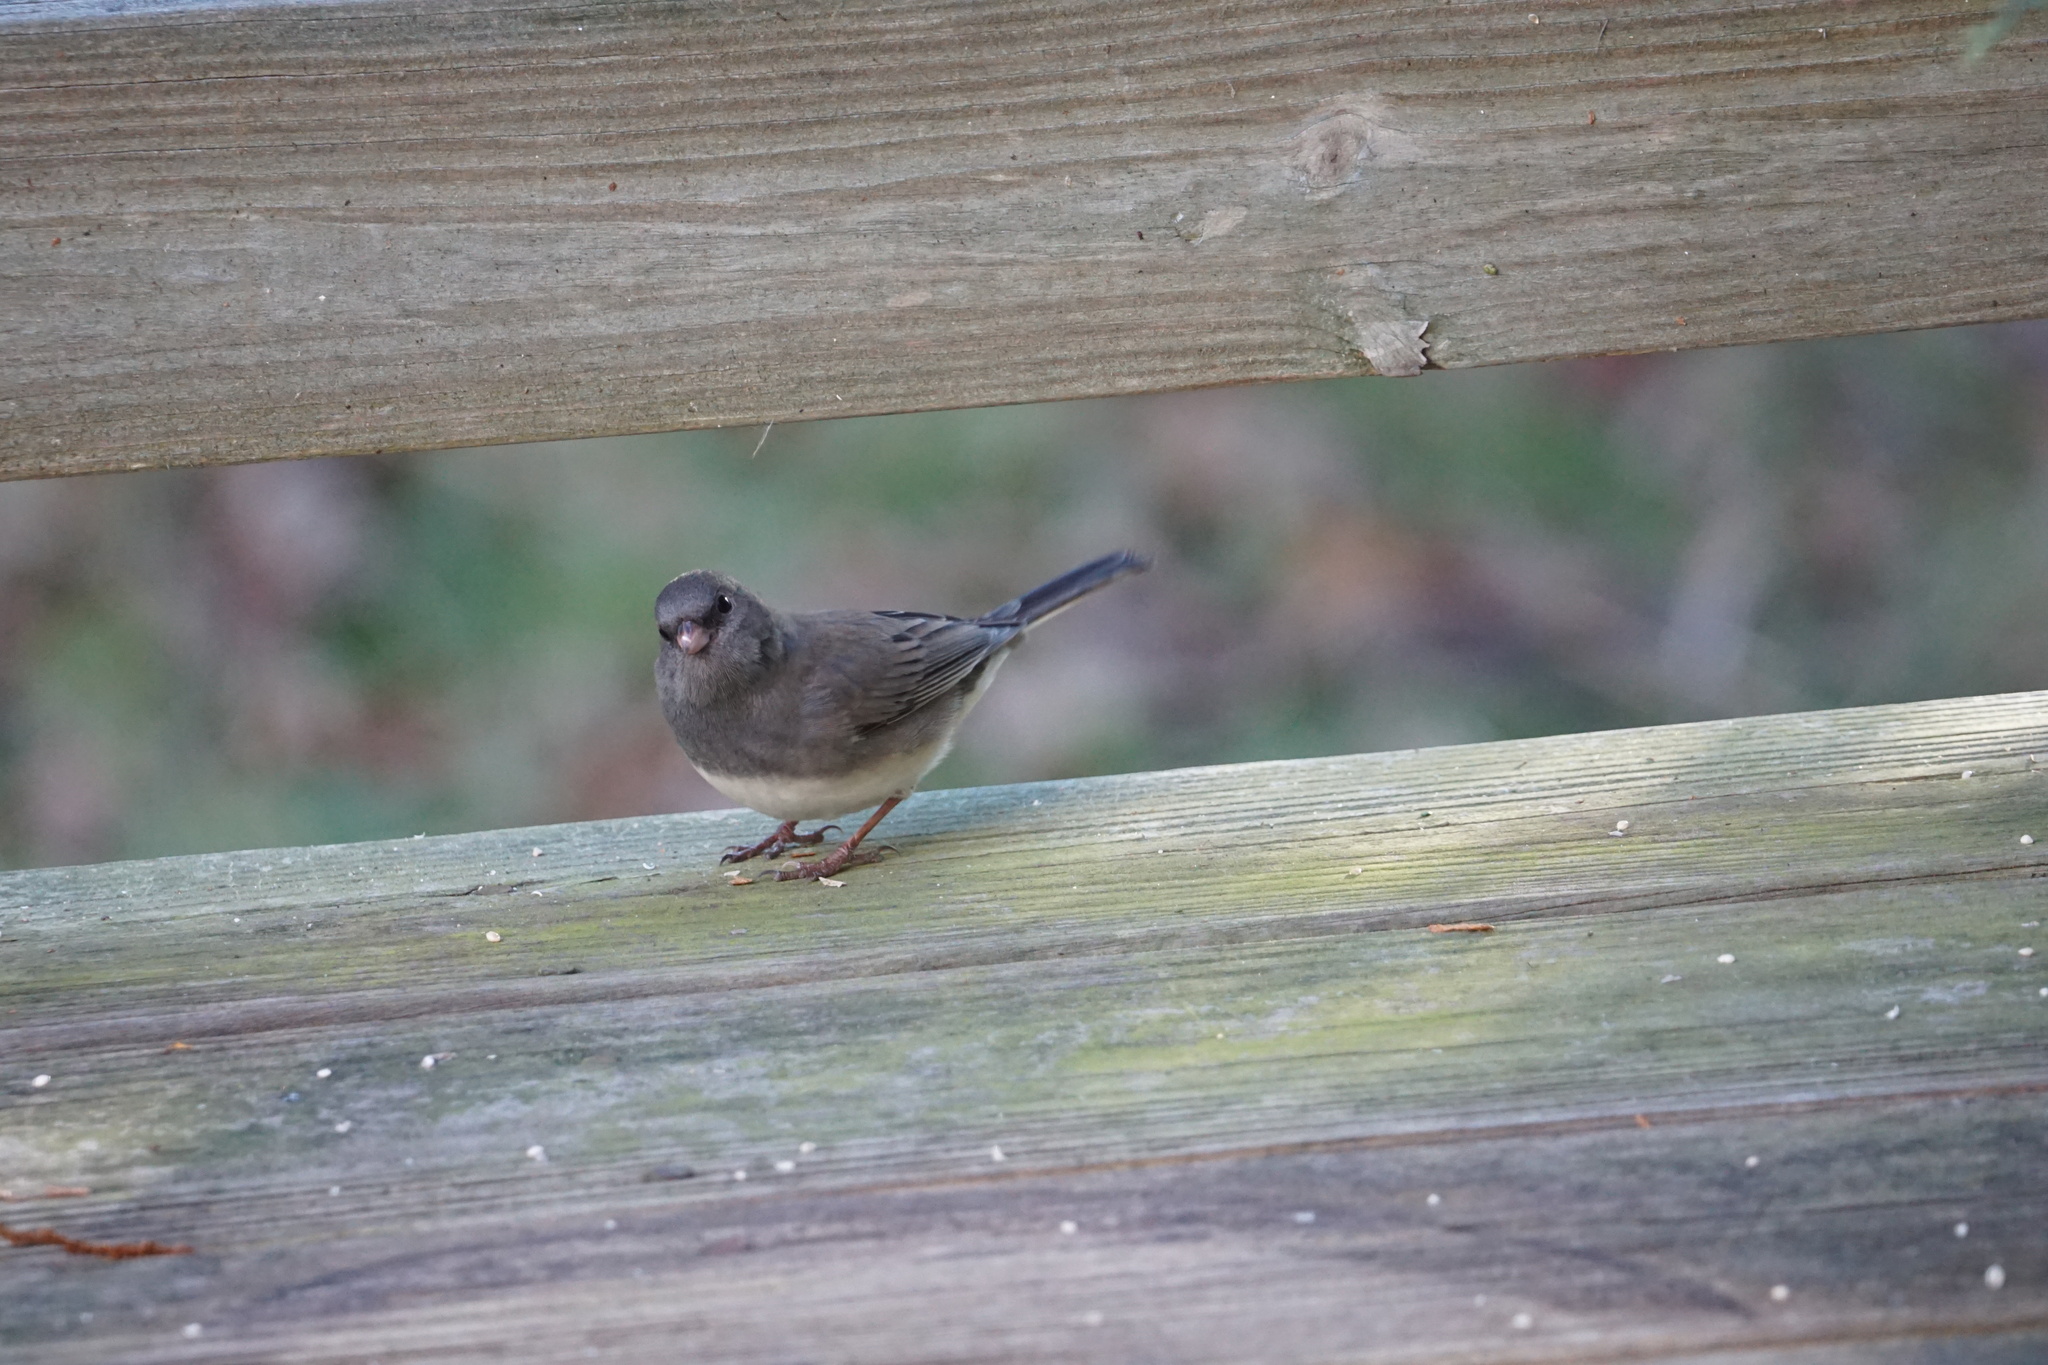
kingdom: Animalia
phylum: Chordata
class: Aves
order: Passeriformes
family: Passerellidae
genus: Junco
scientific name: Junco hyemalis
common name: Dark-eyed junco
